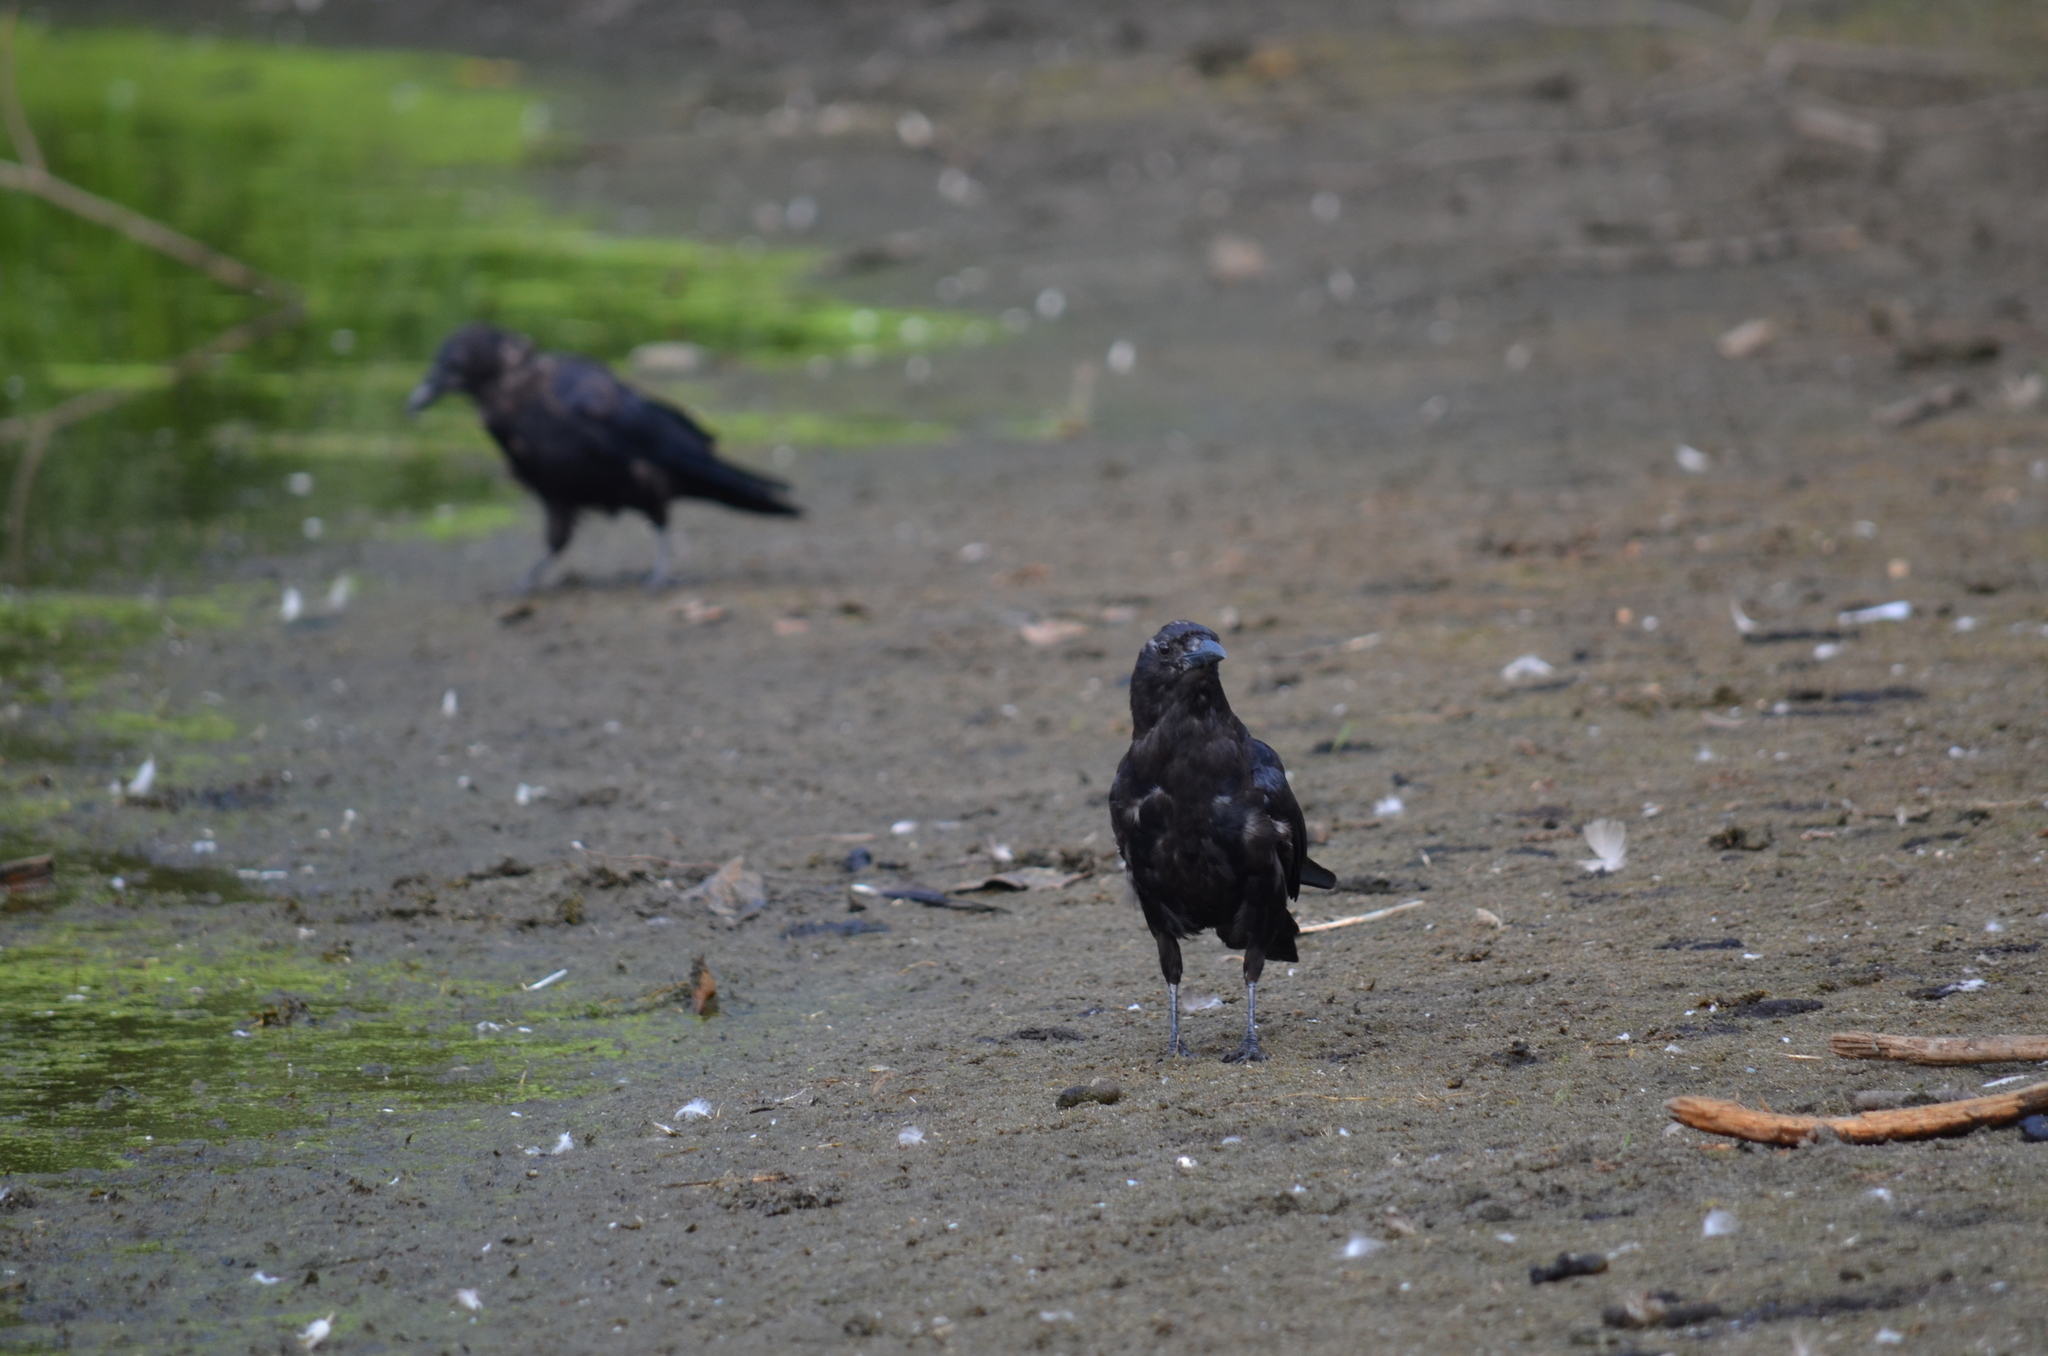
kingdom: Animalia
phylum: Chordata
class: Aves
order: Passeriformes
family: Corvidae
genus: Corvus
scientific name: Corvus brachyrhynchos
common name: American crow
